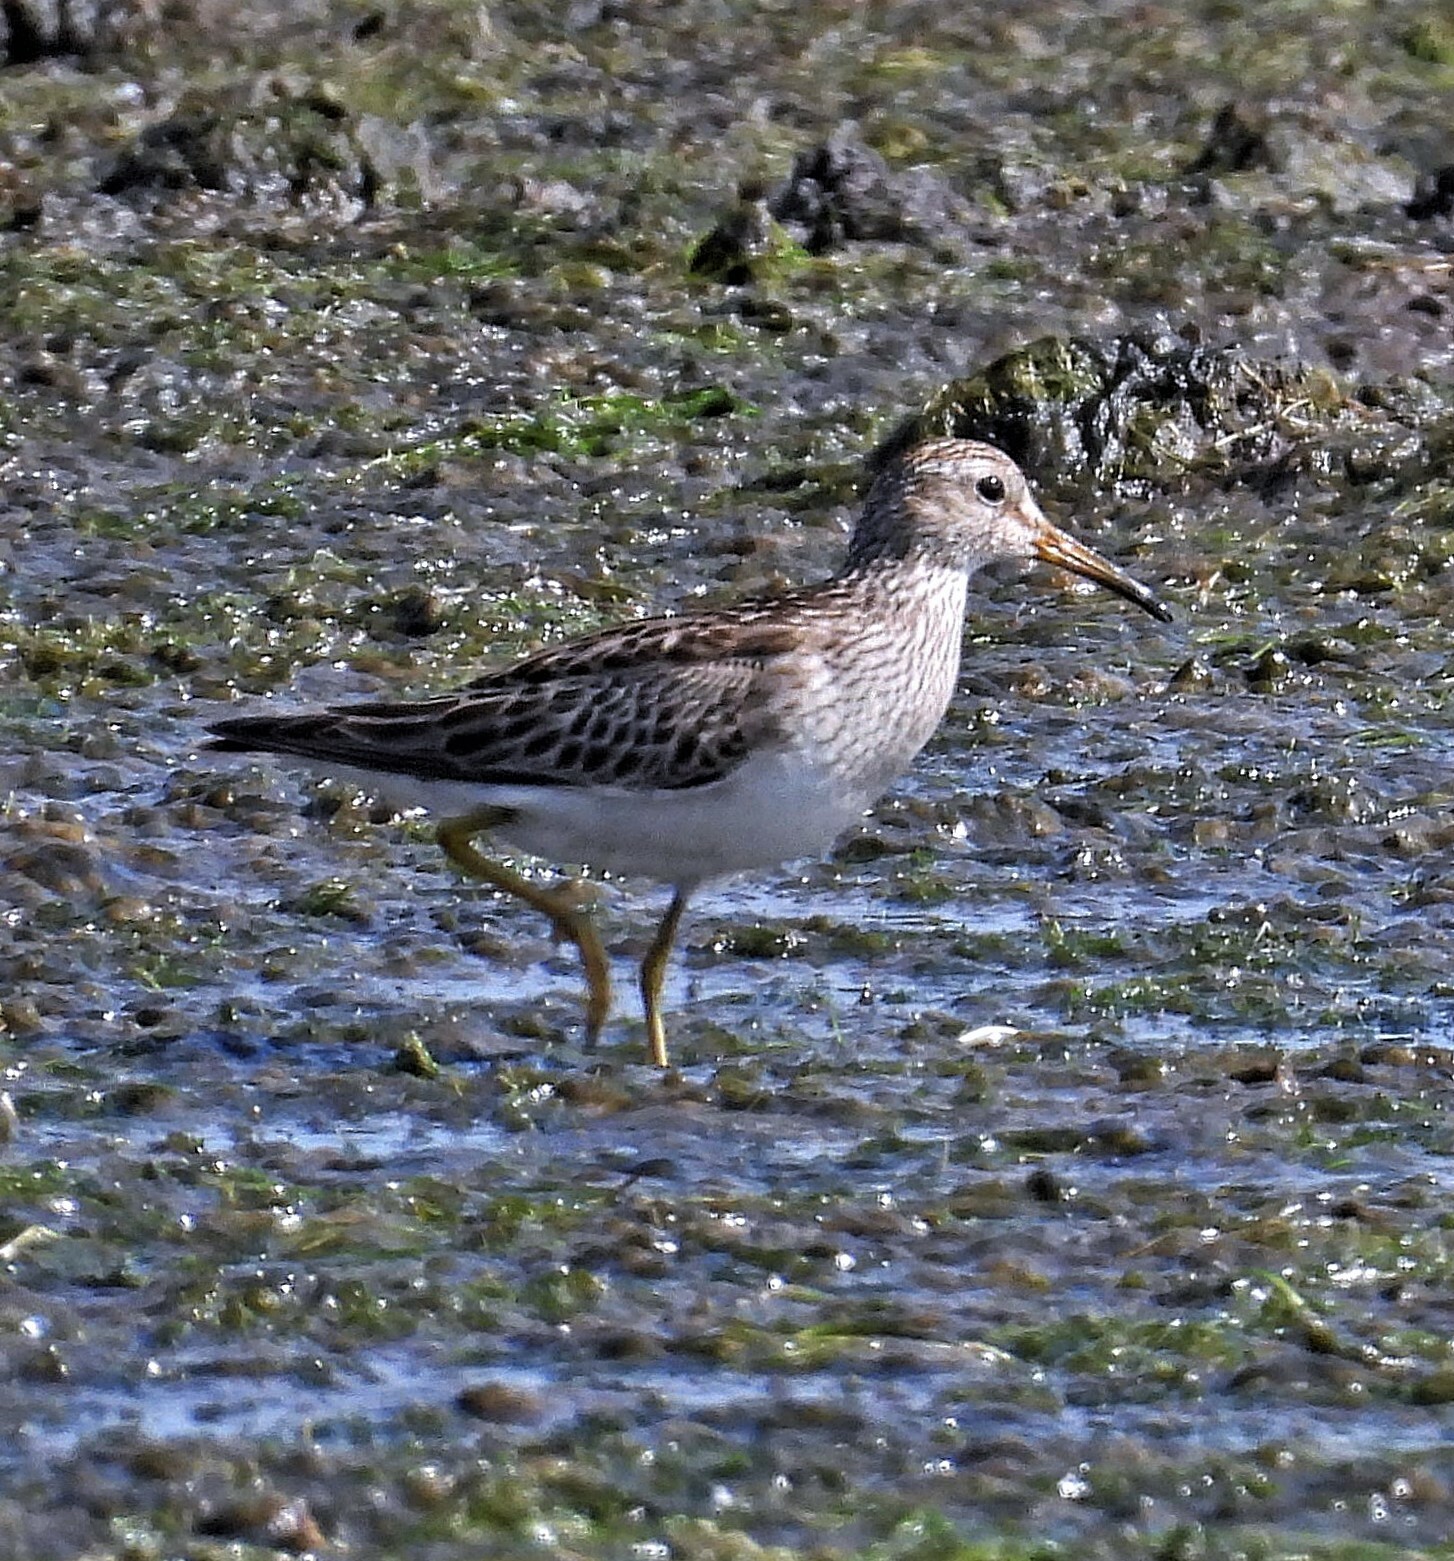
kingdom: Animalia
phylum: Chordata
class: Aves
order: Charadriiformes
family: Scolopacidae
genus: Calidris
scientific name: Calidris melanotos
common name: Pectoral sandpiper
